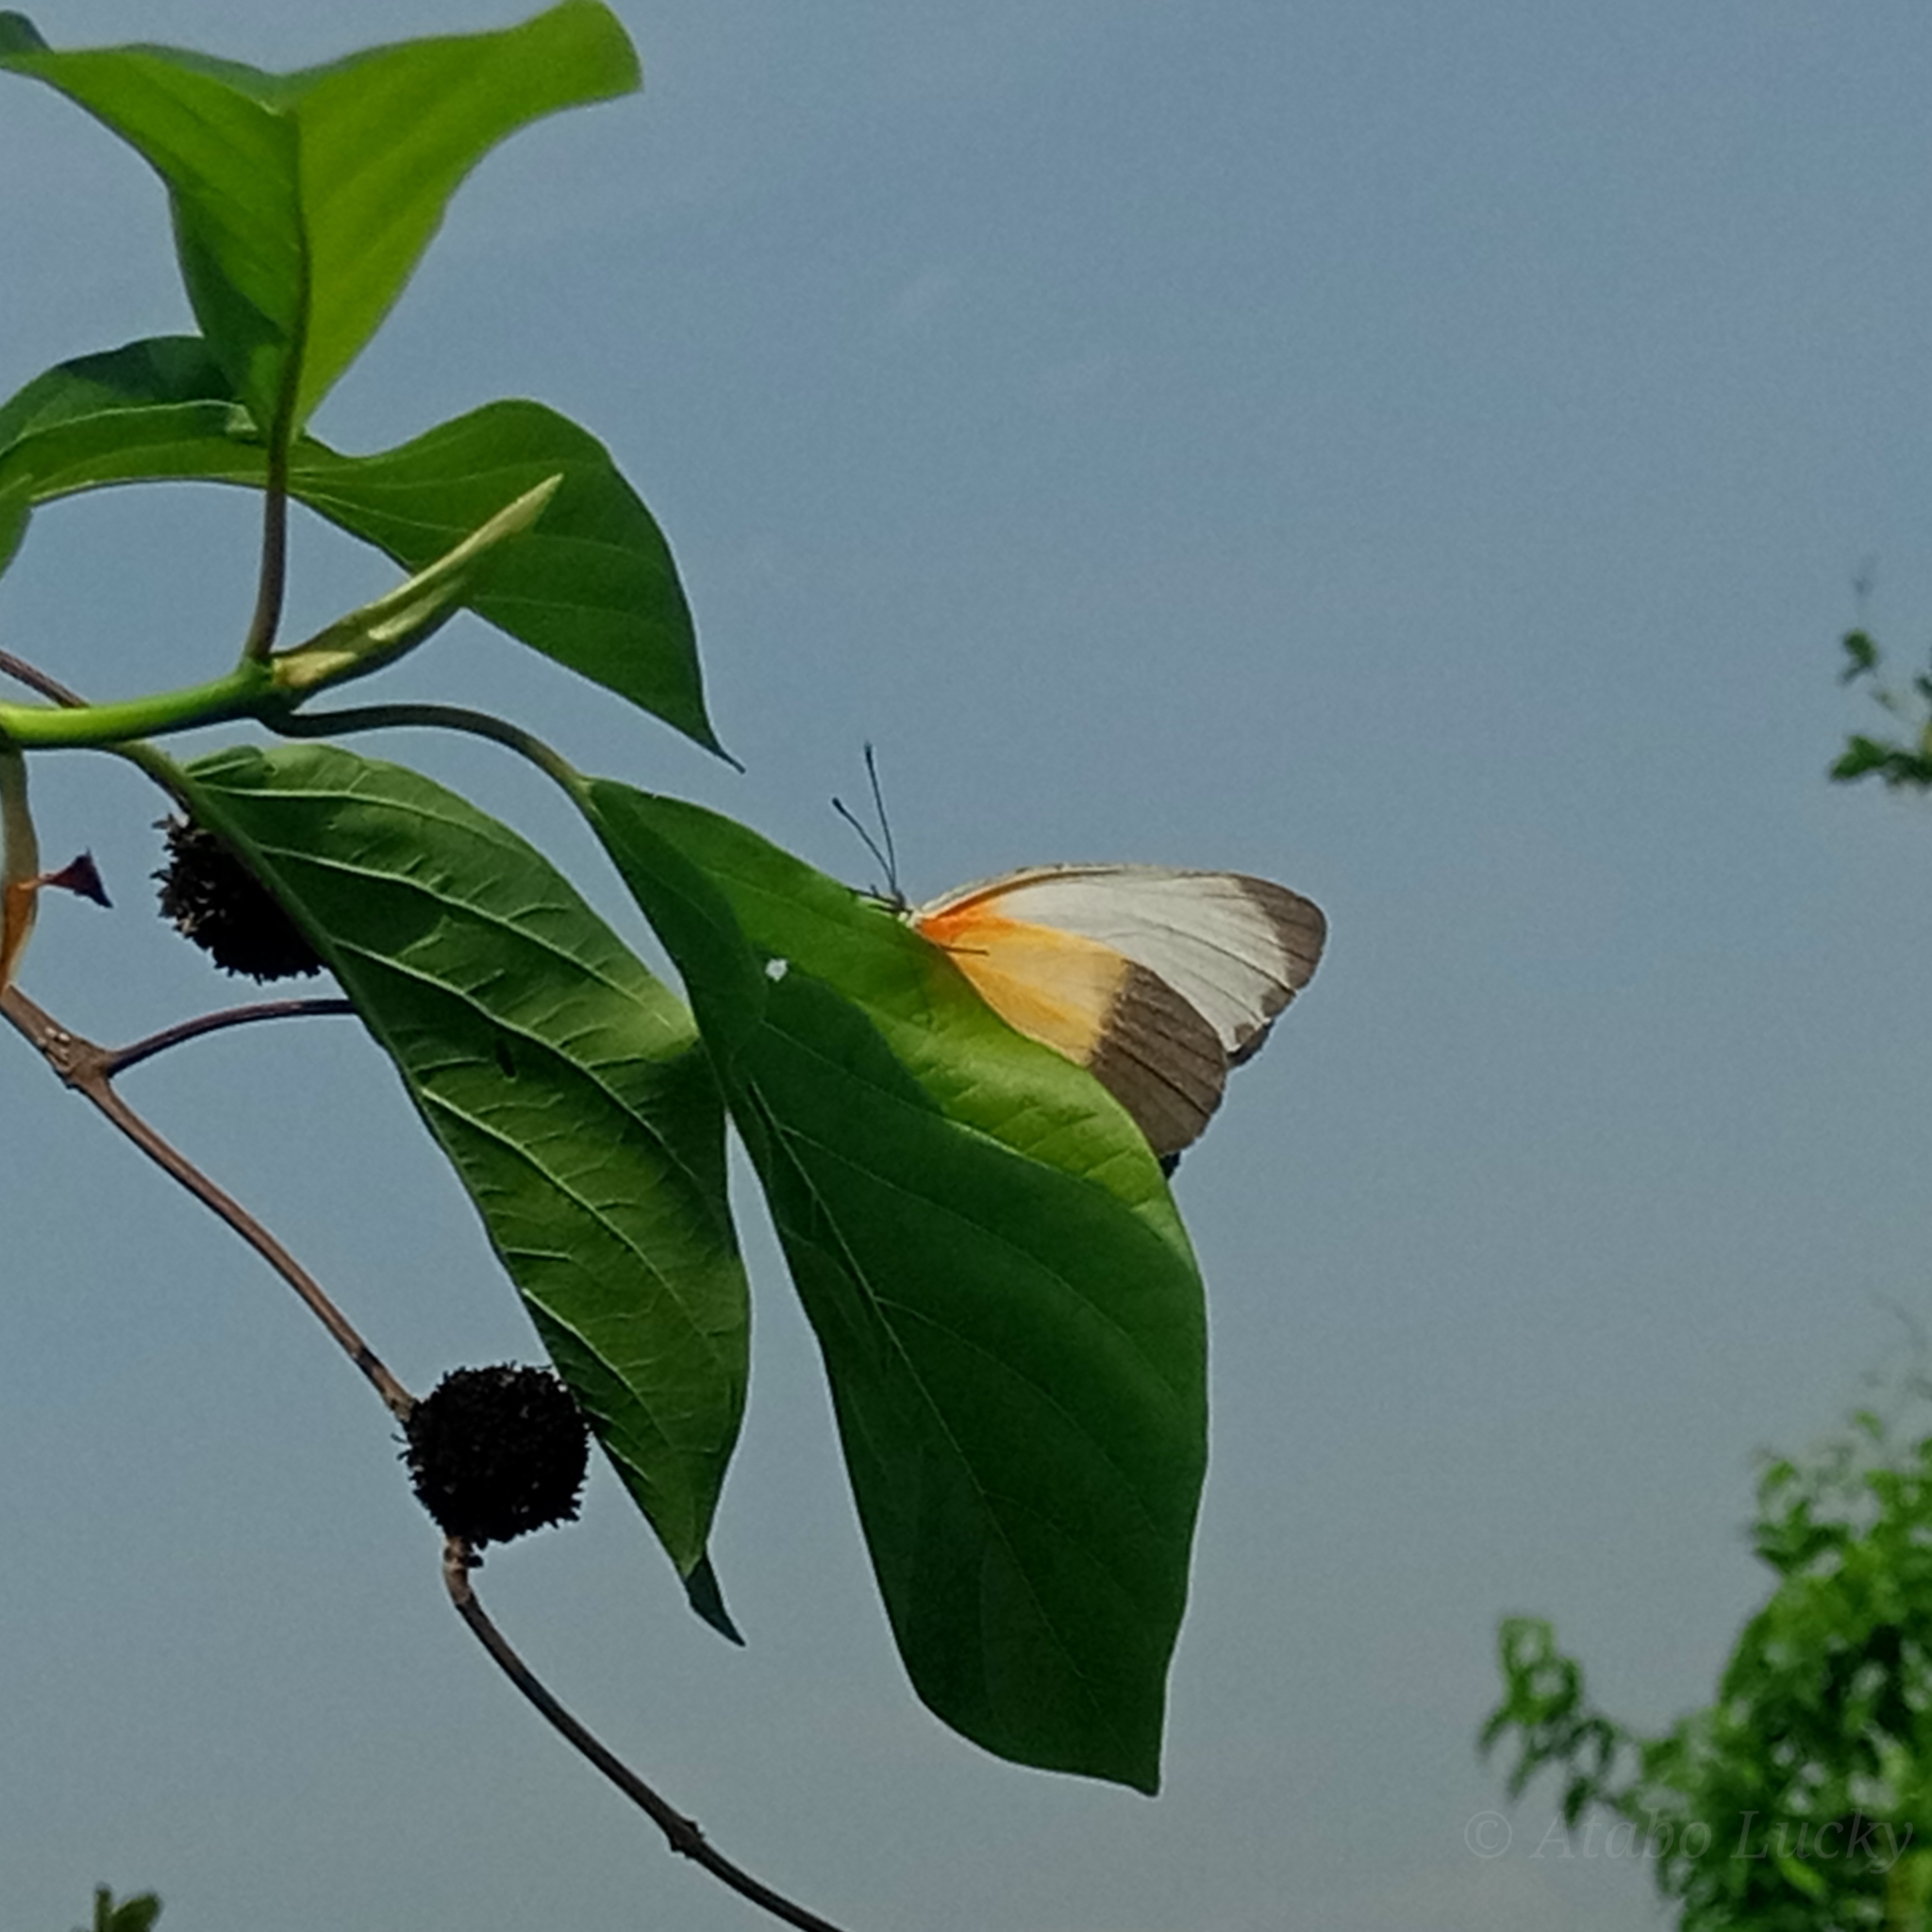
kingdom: Animalia
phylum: Arthropoda
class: Insecta
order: Lepidoptera
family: Pieridae
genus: Mylothris
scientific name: Mylothris chloris
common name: Western dotted border
